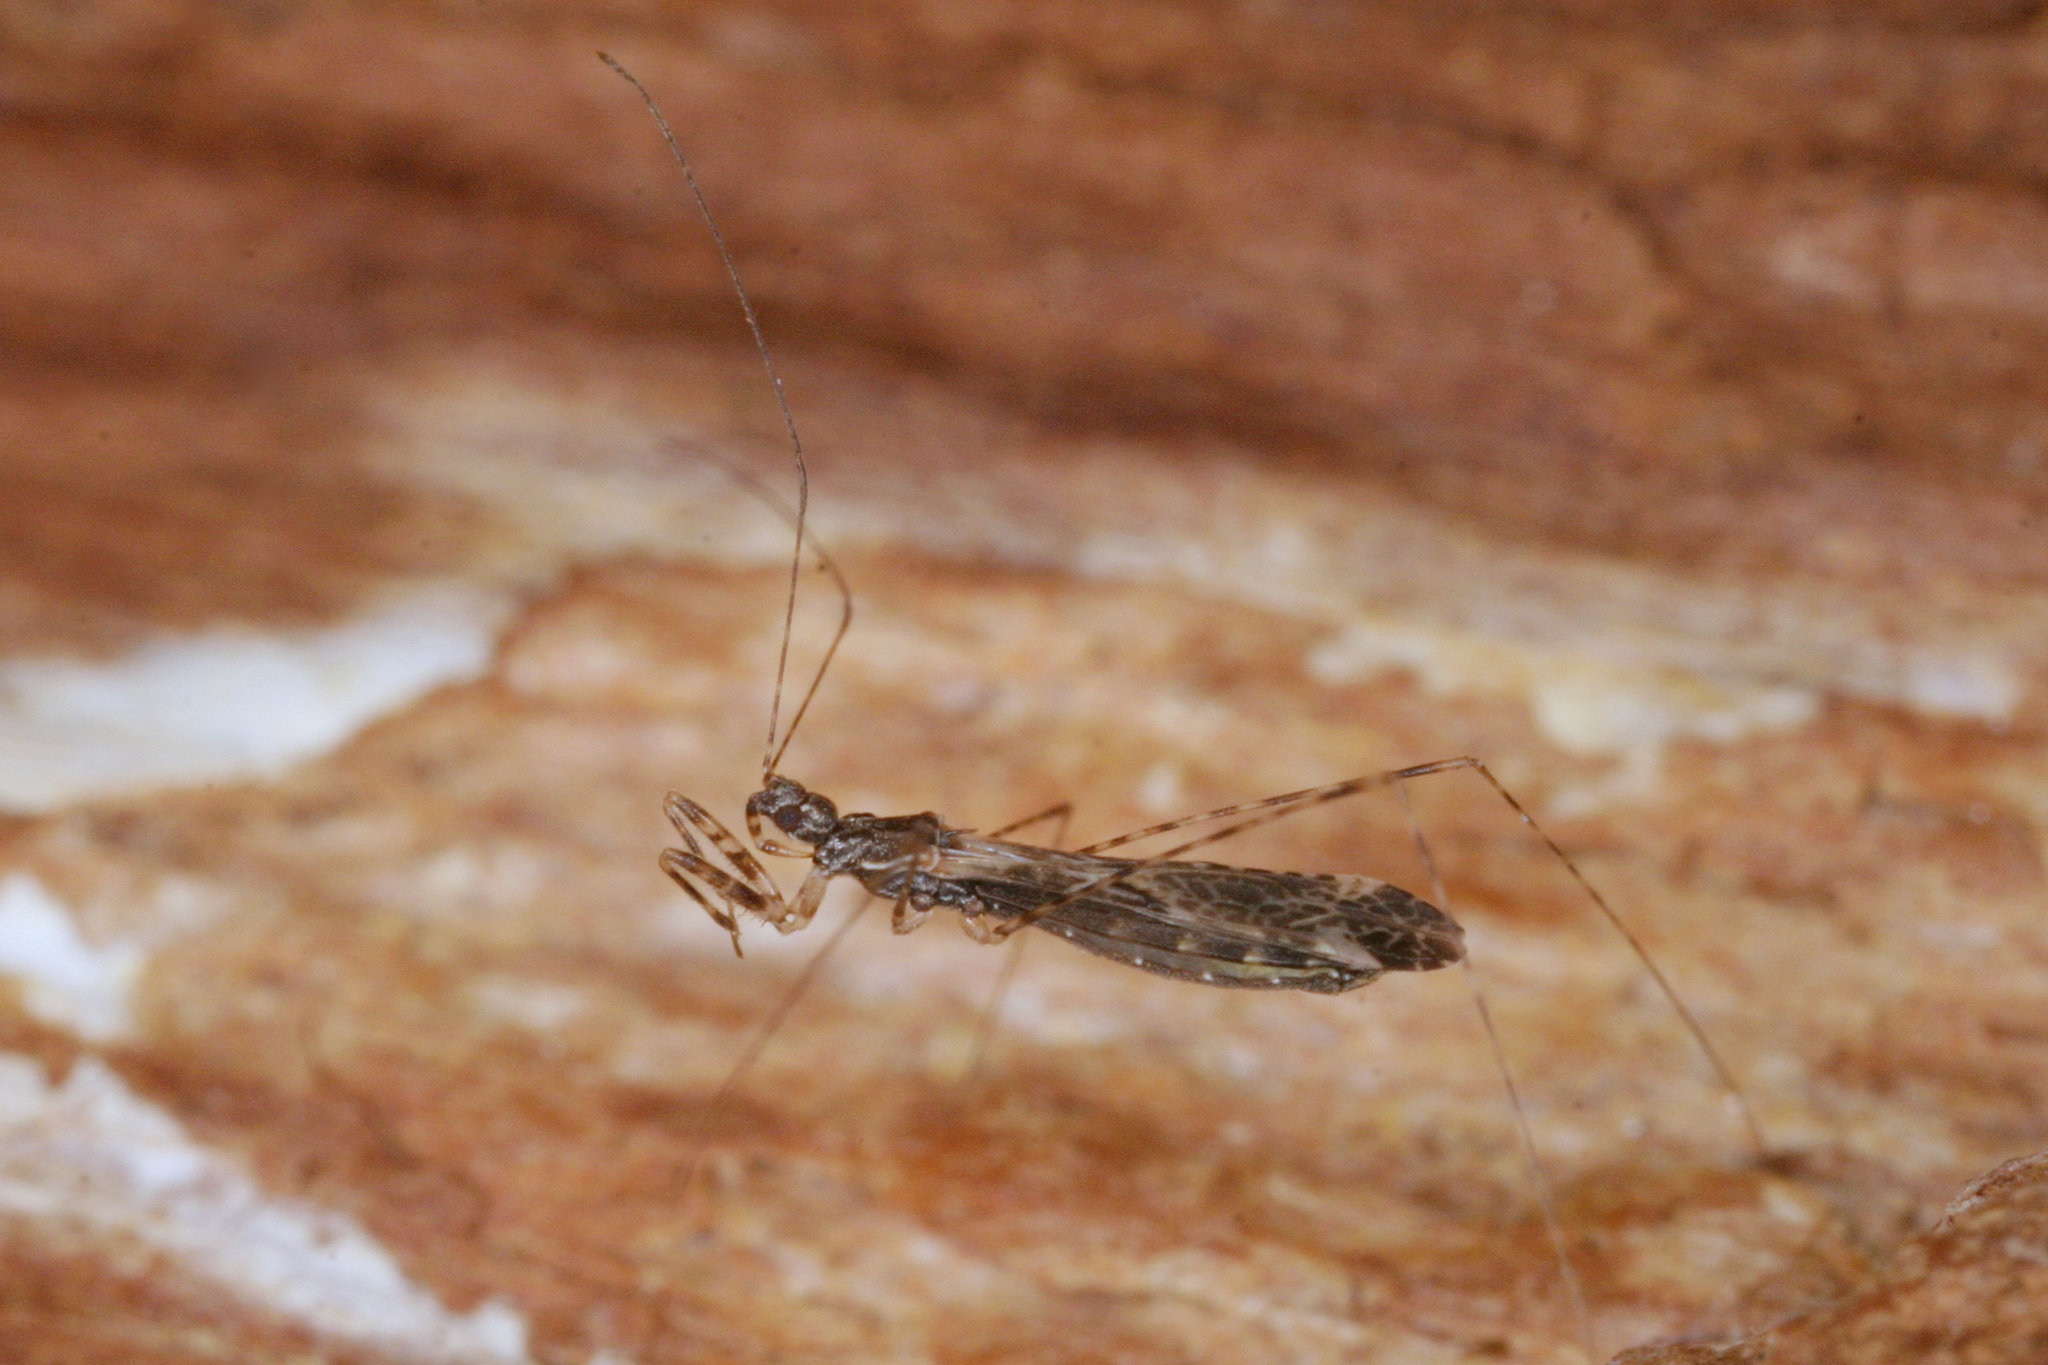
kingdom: Animalia
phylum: Arthropoda
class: Insecta
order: Hemiptera
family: Reduviidae
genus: Empicoris
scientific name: Empicoris culiciformis
